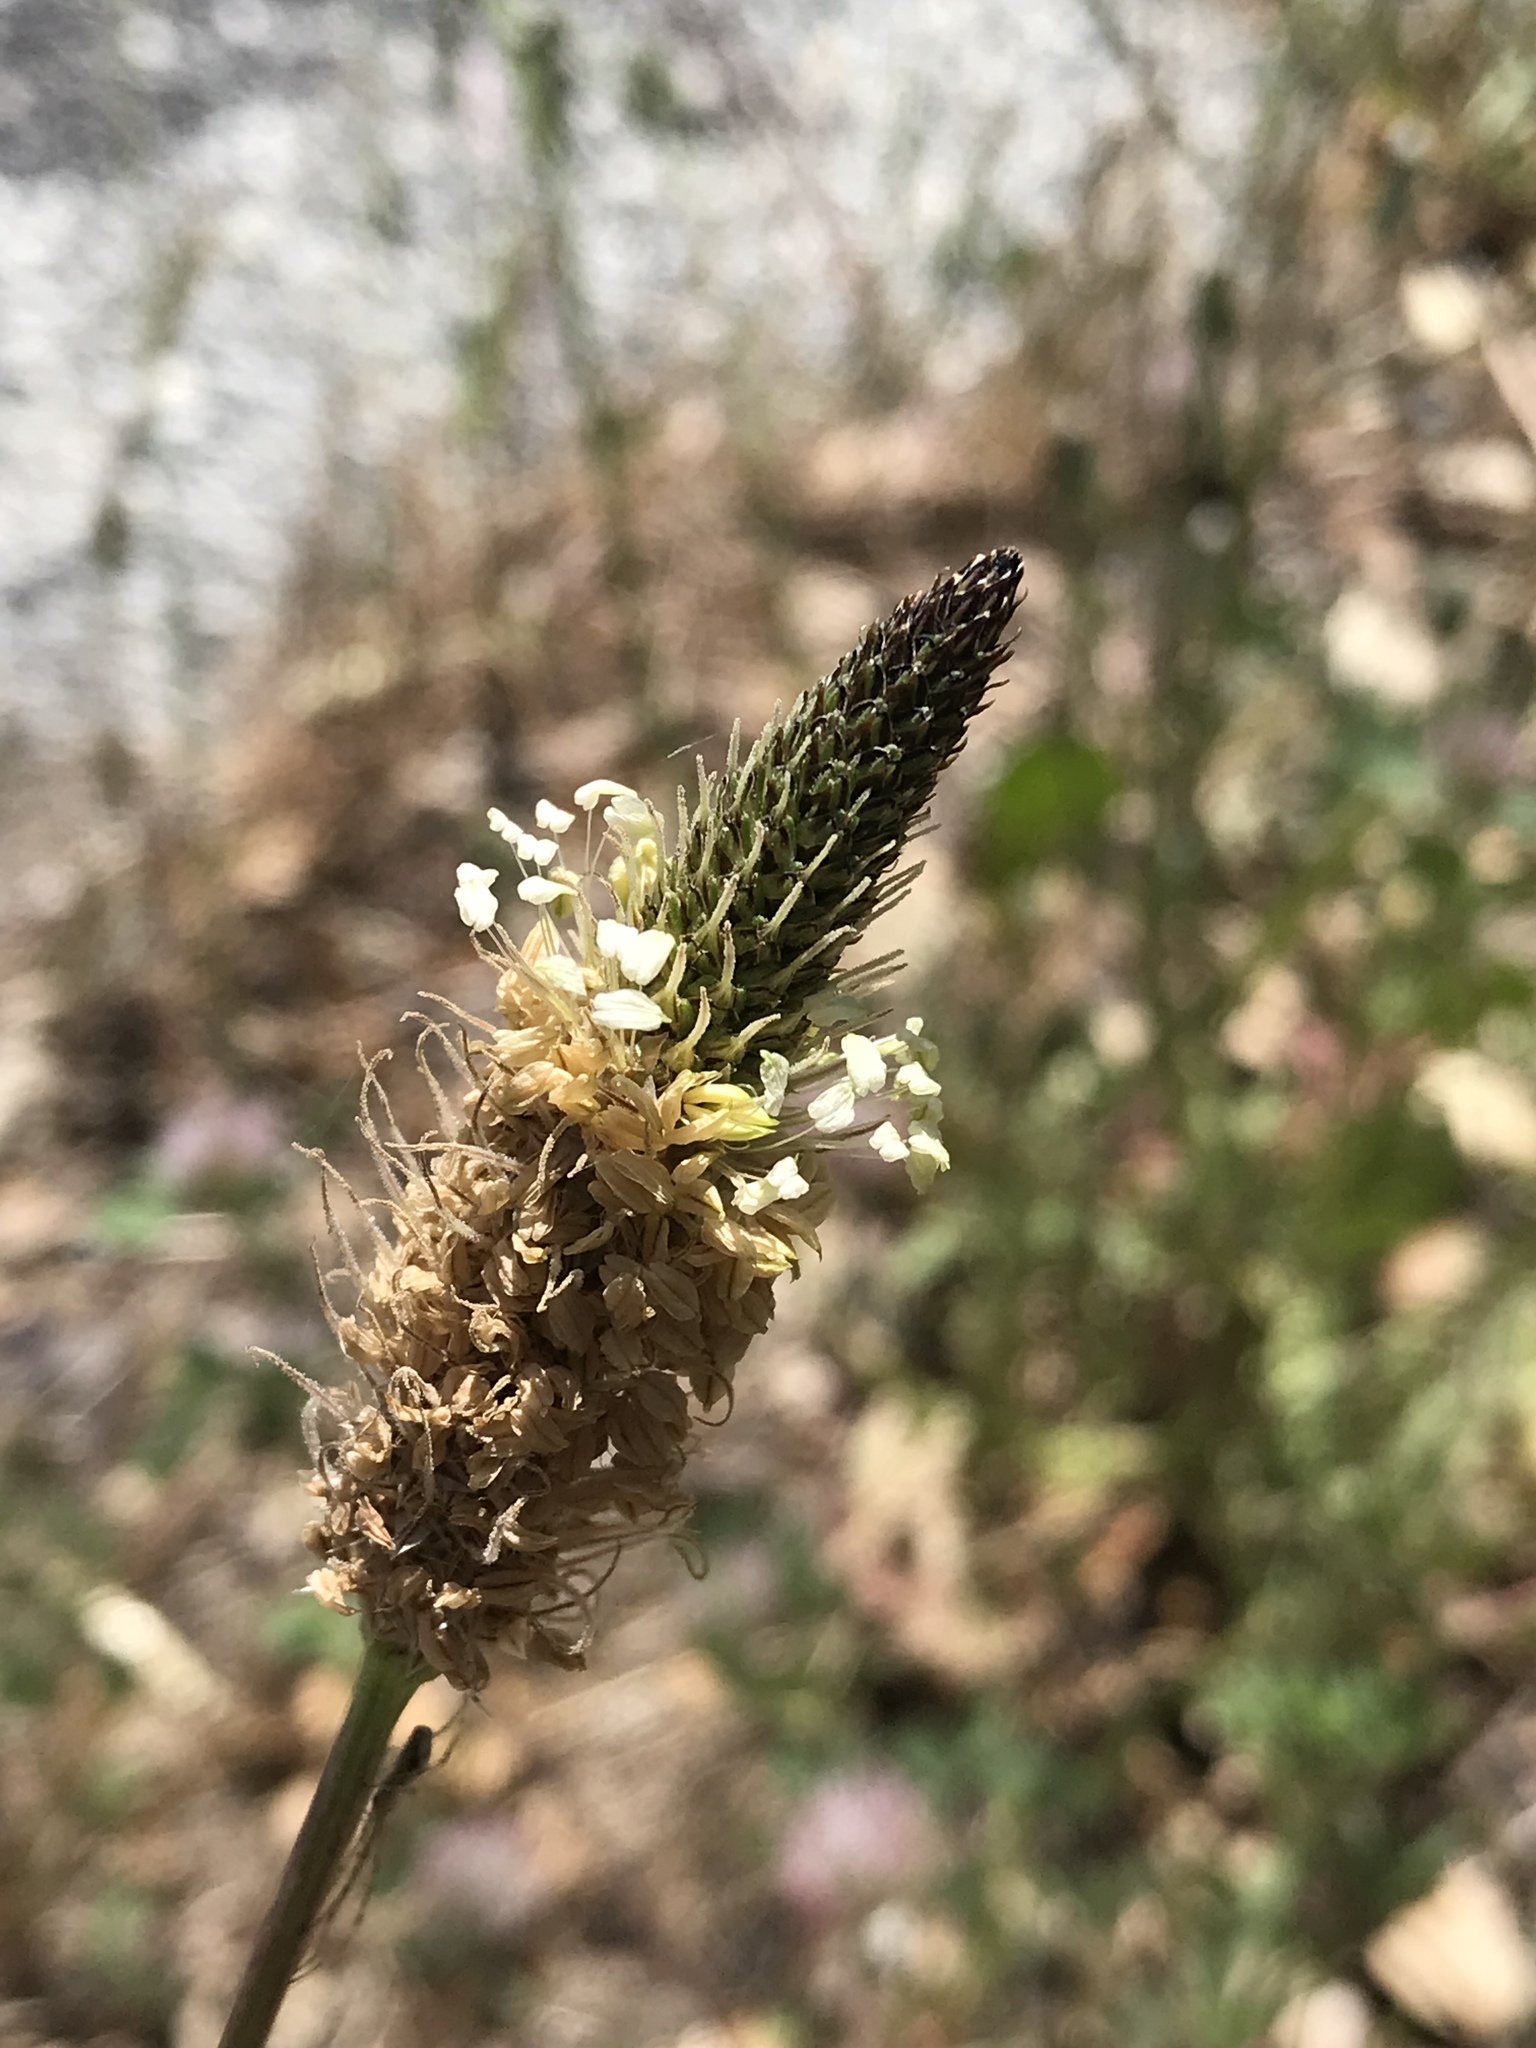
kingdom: Plantae
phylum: Tracheophyta
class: Magnoliopsida
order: Lamiales
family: Plantaginaceae
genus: Plantago
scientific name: Plantago lanceolata
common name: Ribwort plantain
